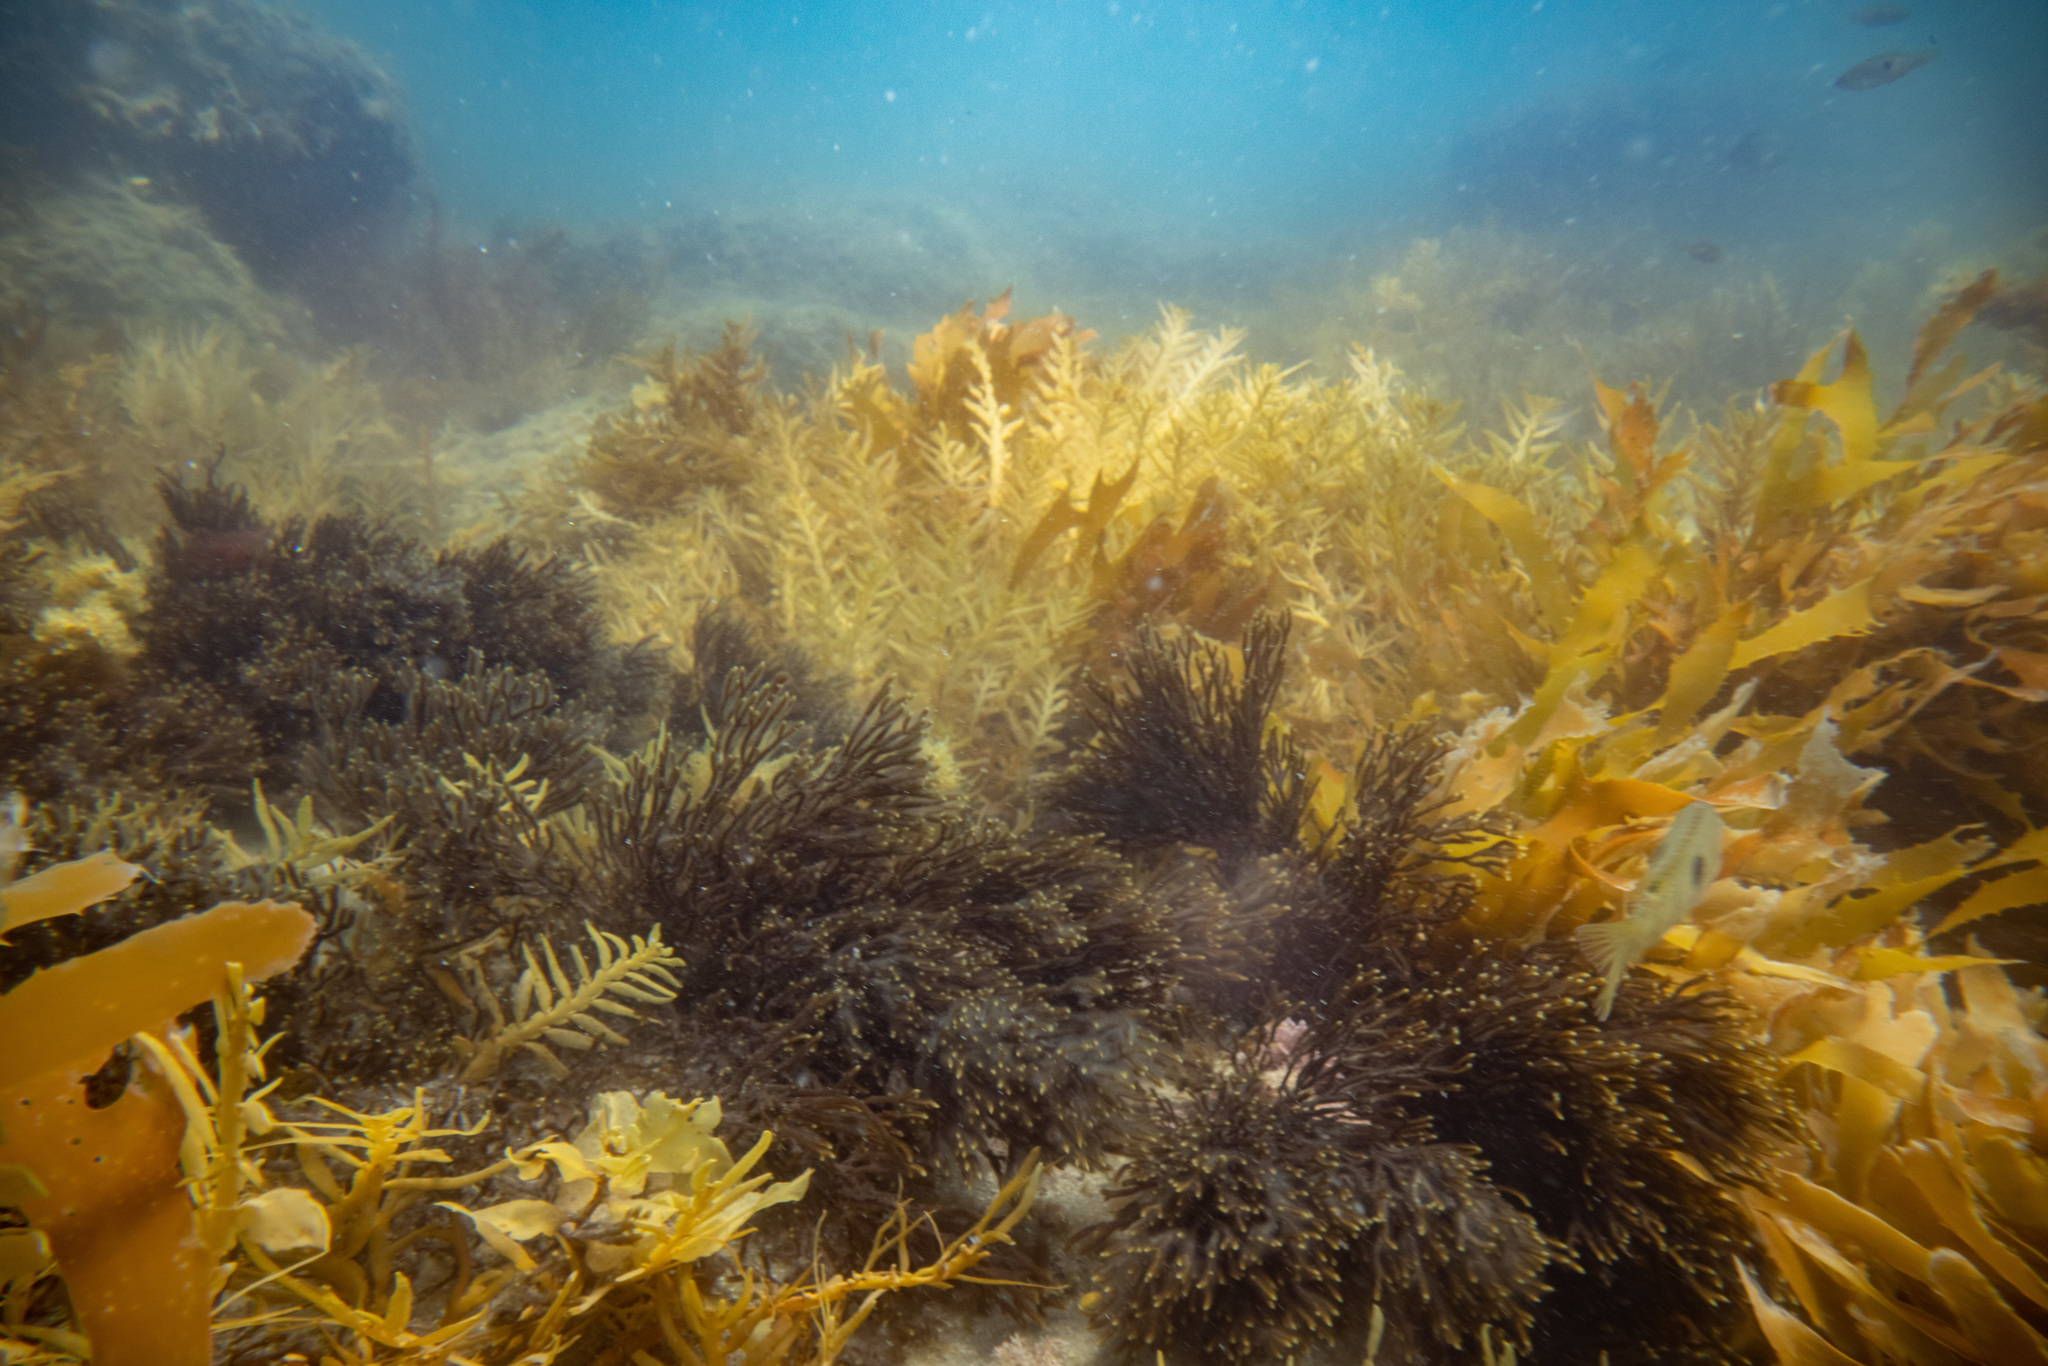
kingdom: Chromista
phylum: Ochrophyta
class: Phaeophyceae
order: Sphacelariales
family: Cladostephaceae
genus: Cladostephus
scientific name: Cladostephus hirsutus
